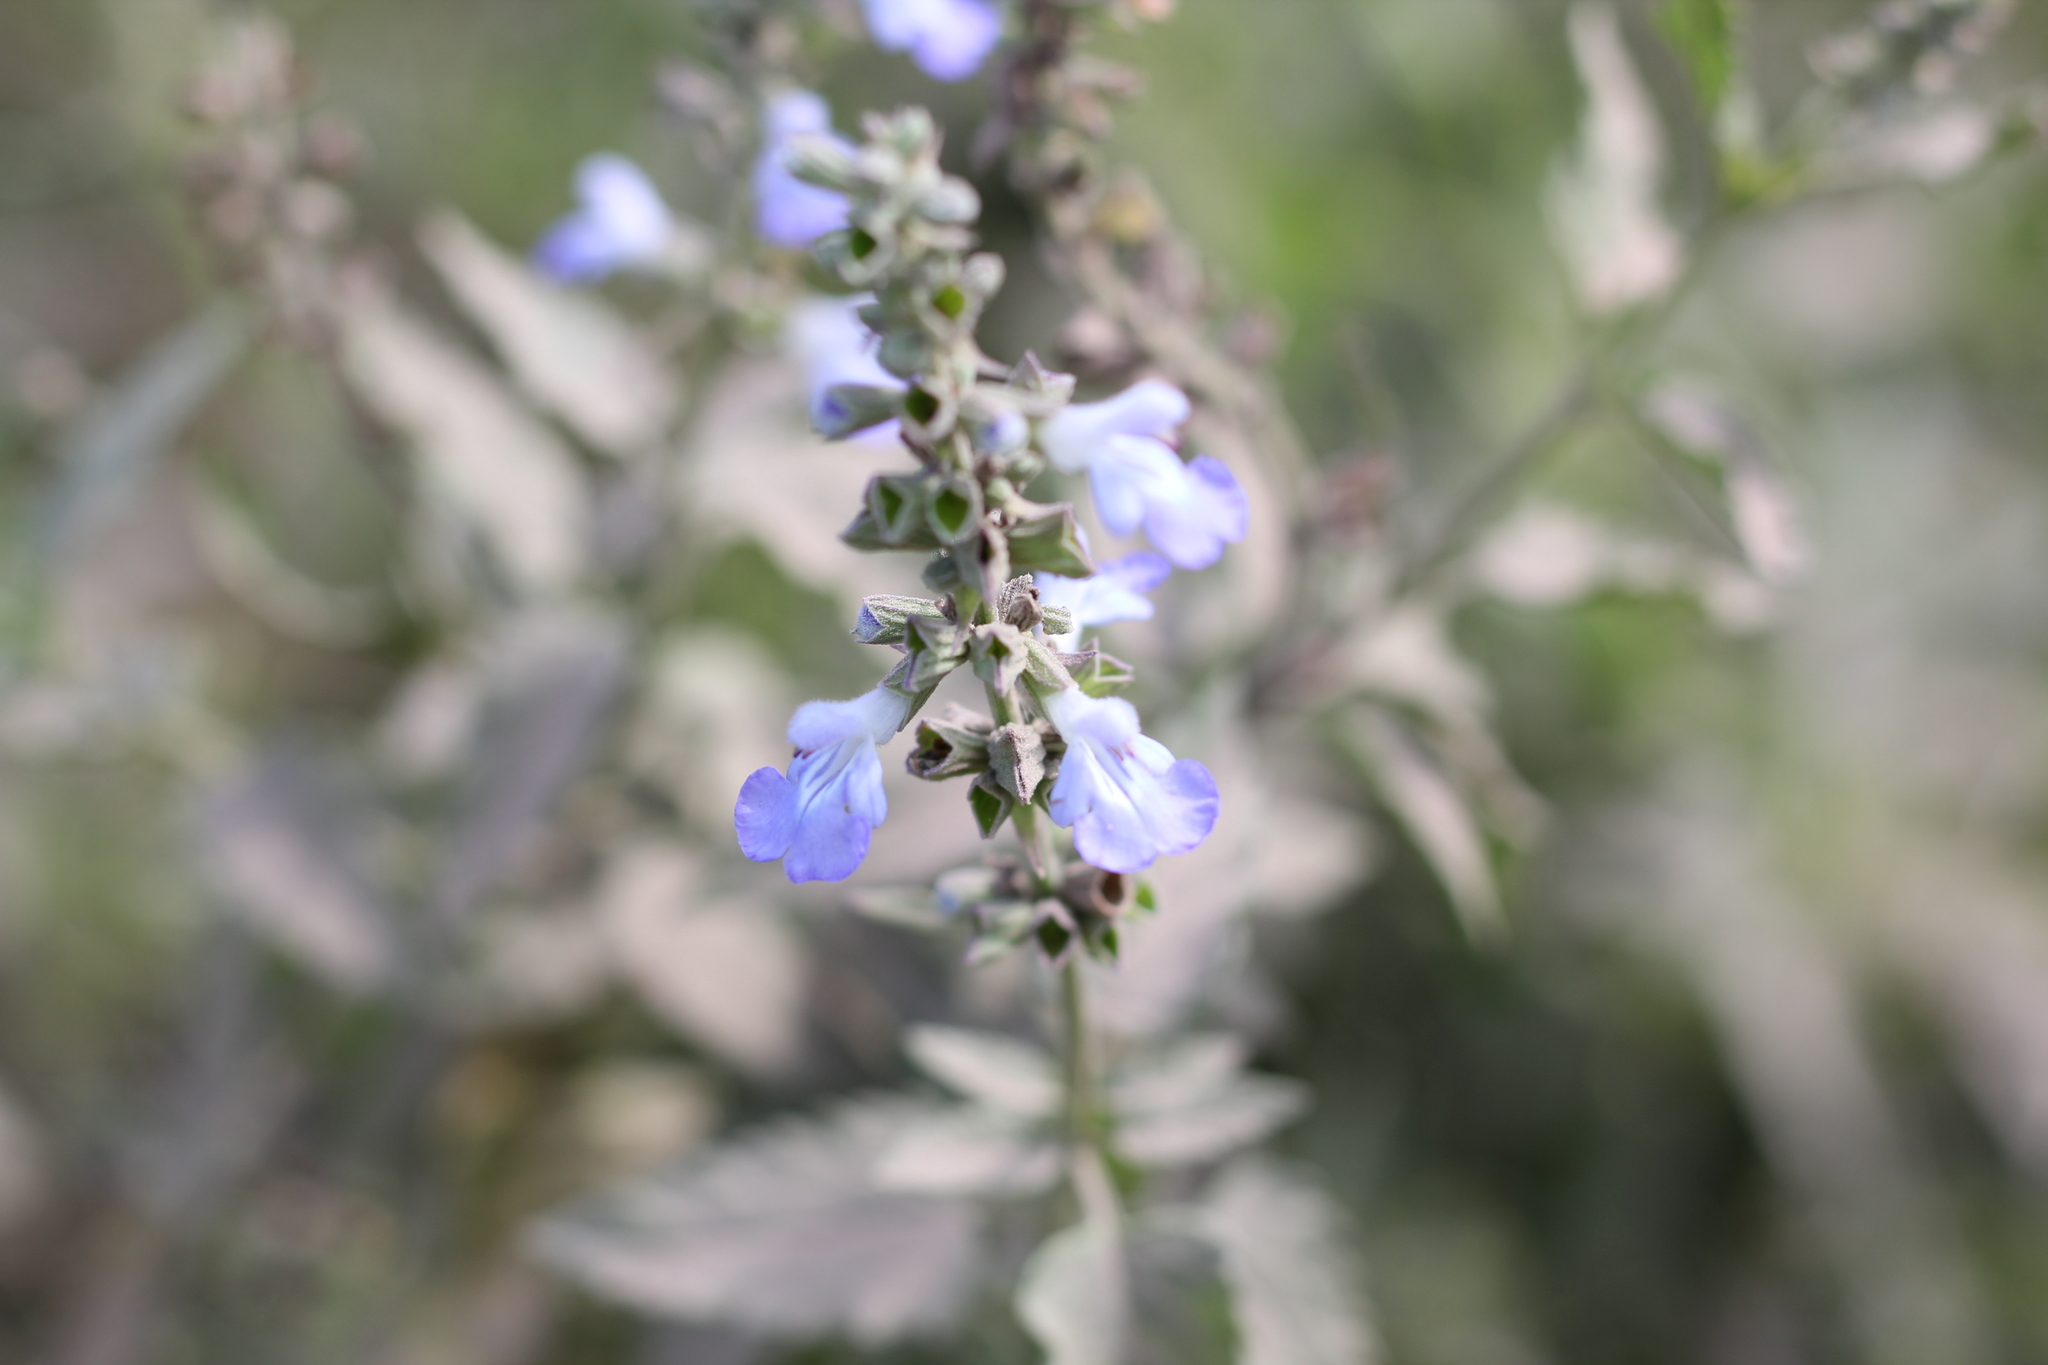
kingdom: Plantae
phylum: Tracheophyta
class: Magnoliopsida
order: Lamiales
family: Lamiaceae
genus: Salvia
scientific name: Salvia pallida
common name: Pale sage
